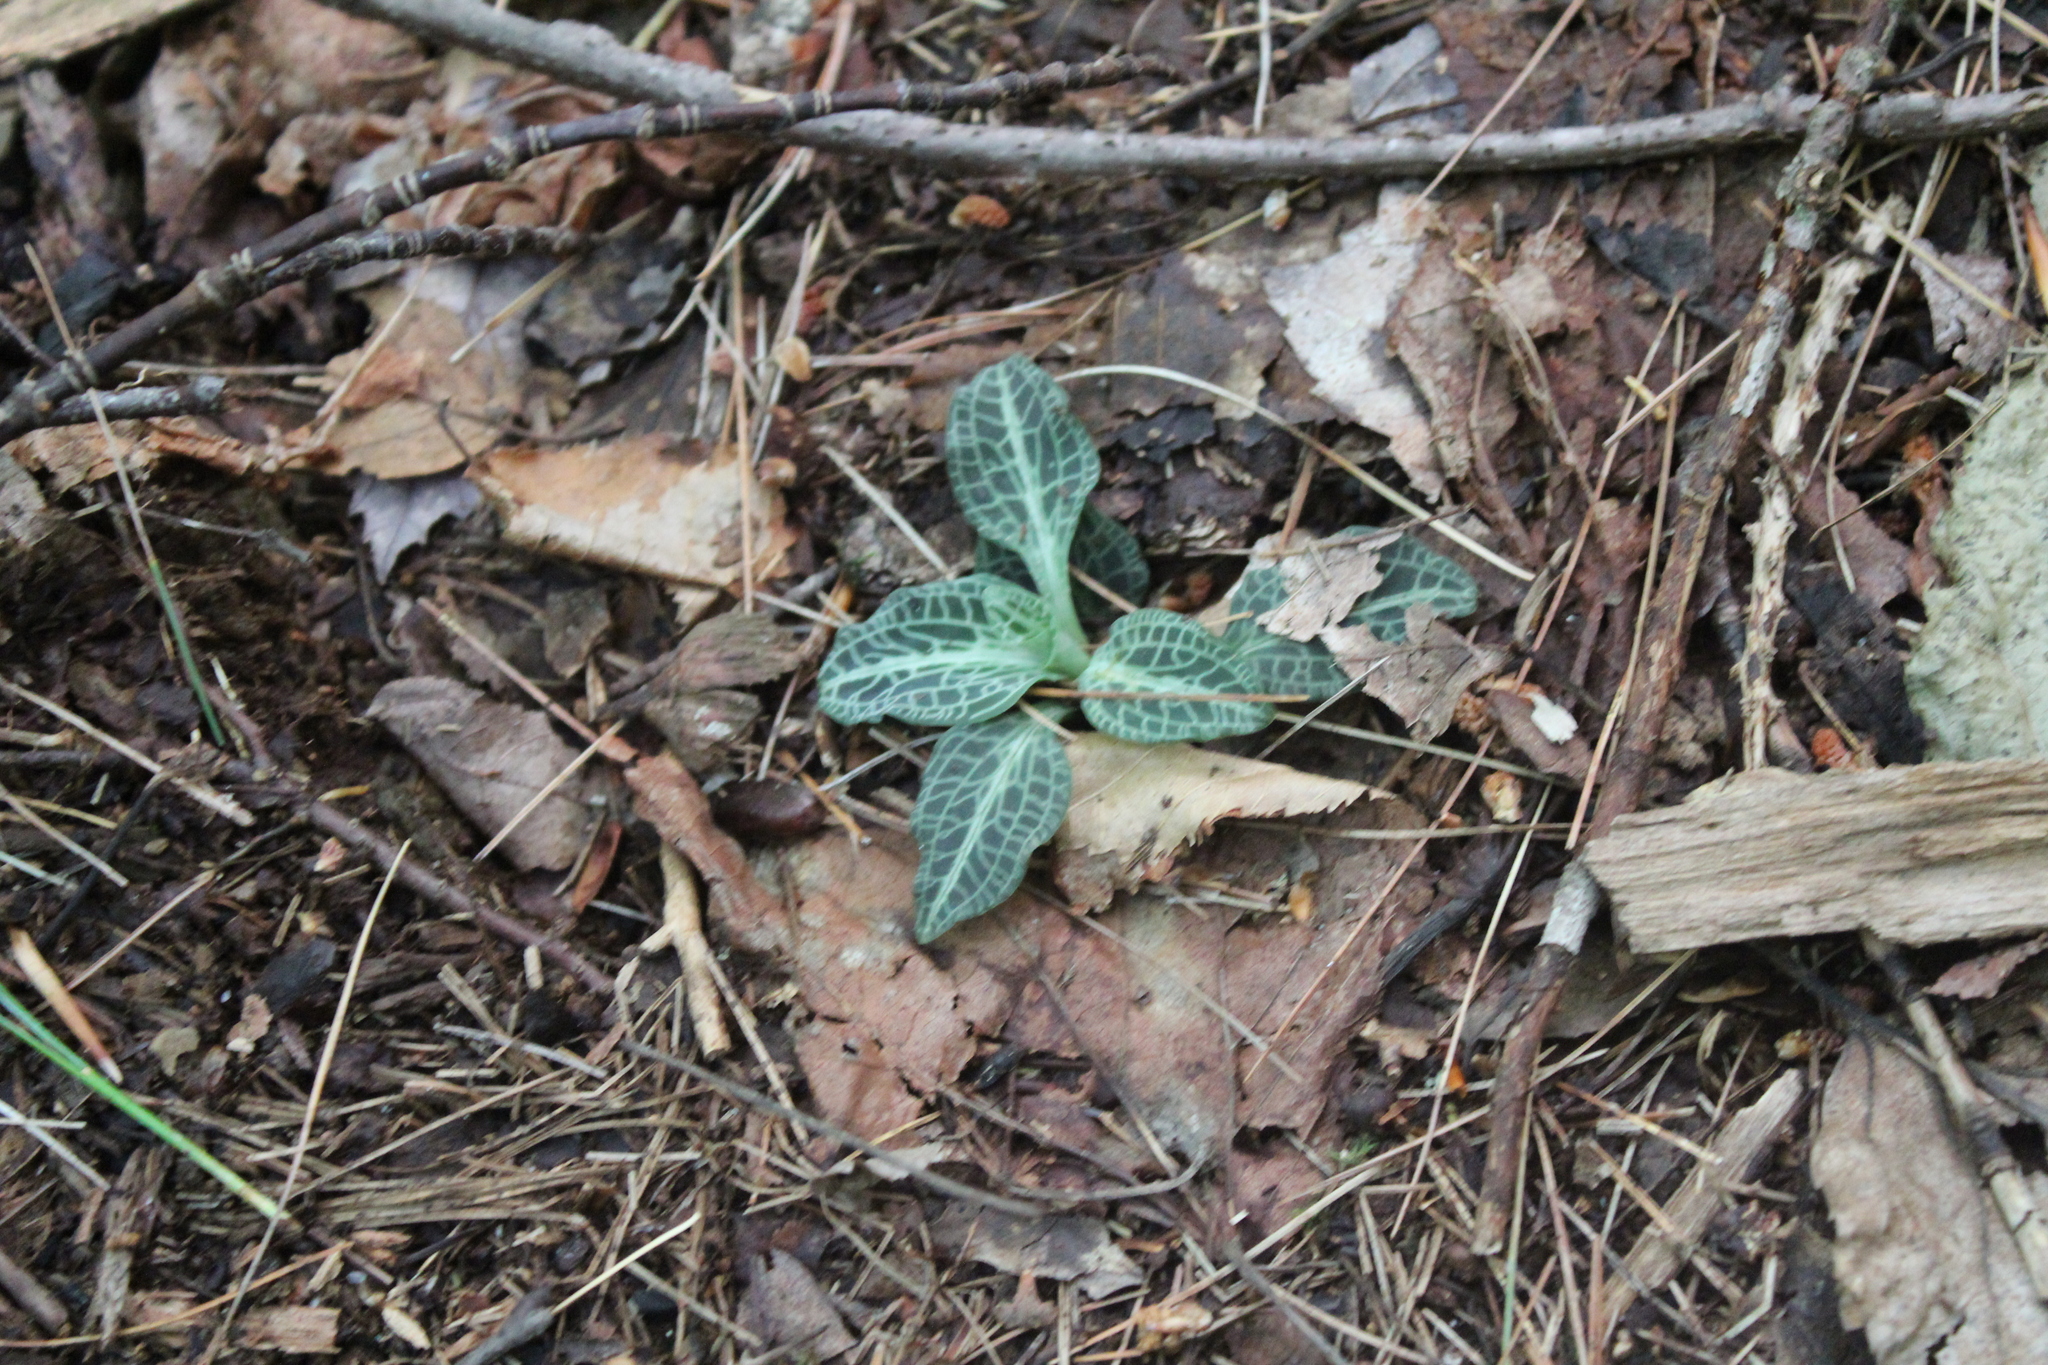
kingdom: Plantae
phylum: Tracheophyta
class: Liliopsida
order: Asparagales
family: Orchidaceae
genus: Goodyera
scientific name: Goodyera pubescens
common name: Downy rattlesnake-plantain
